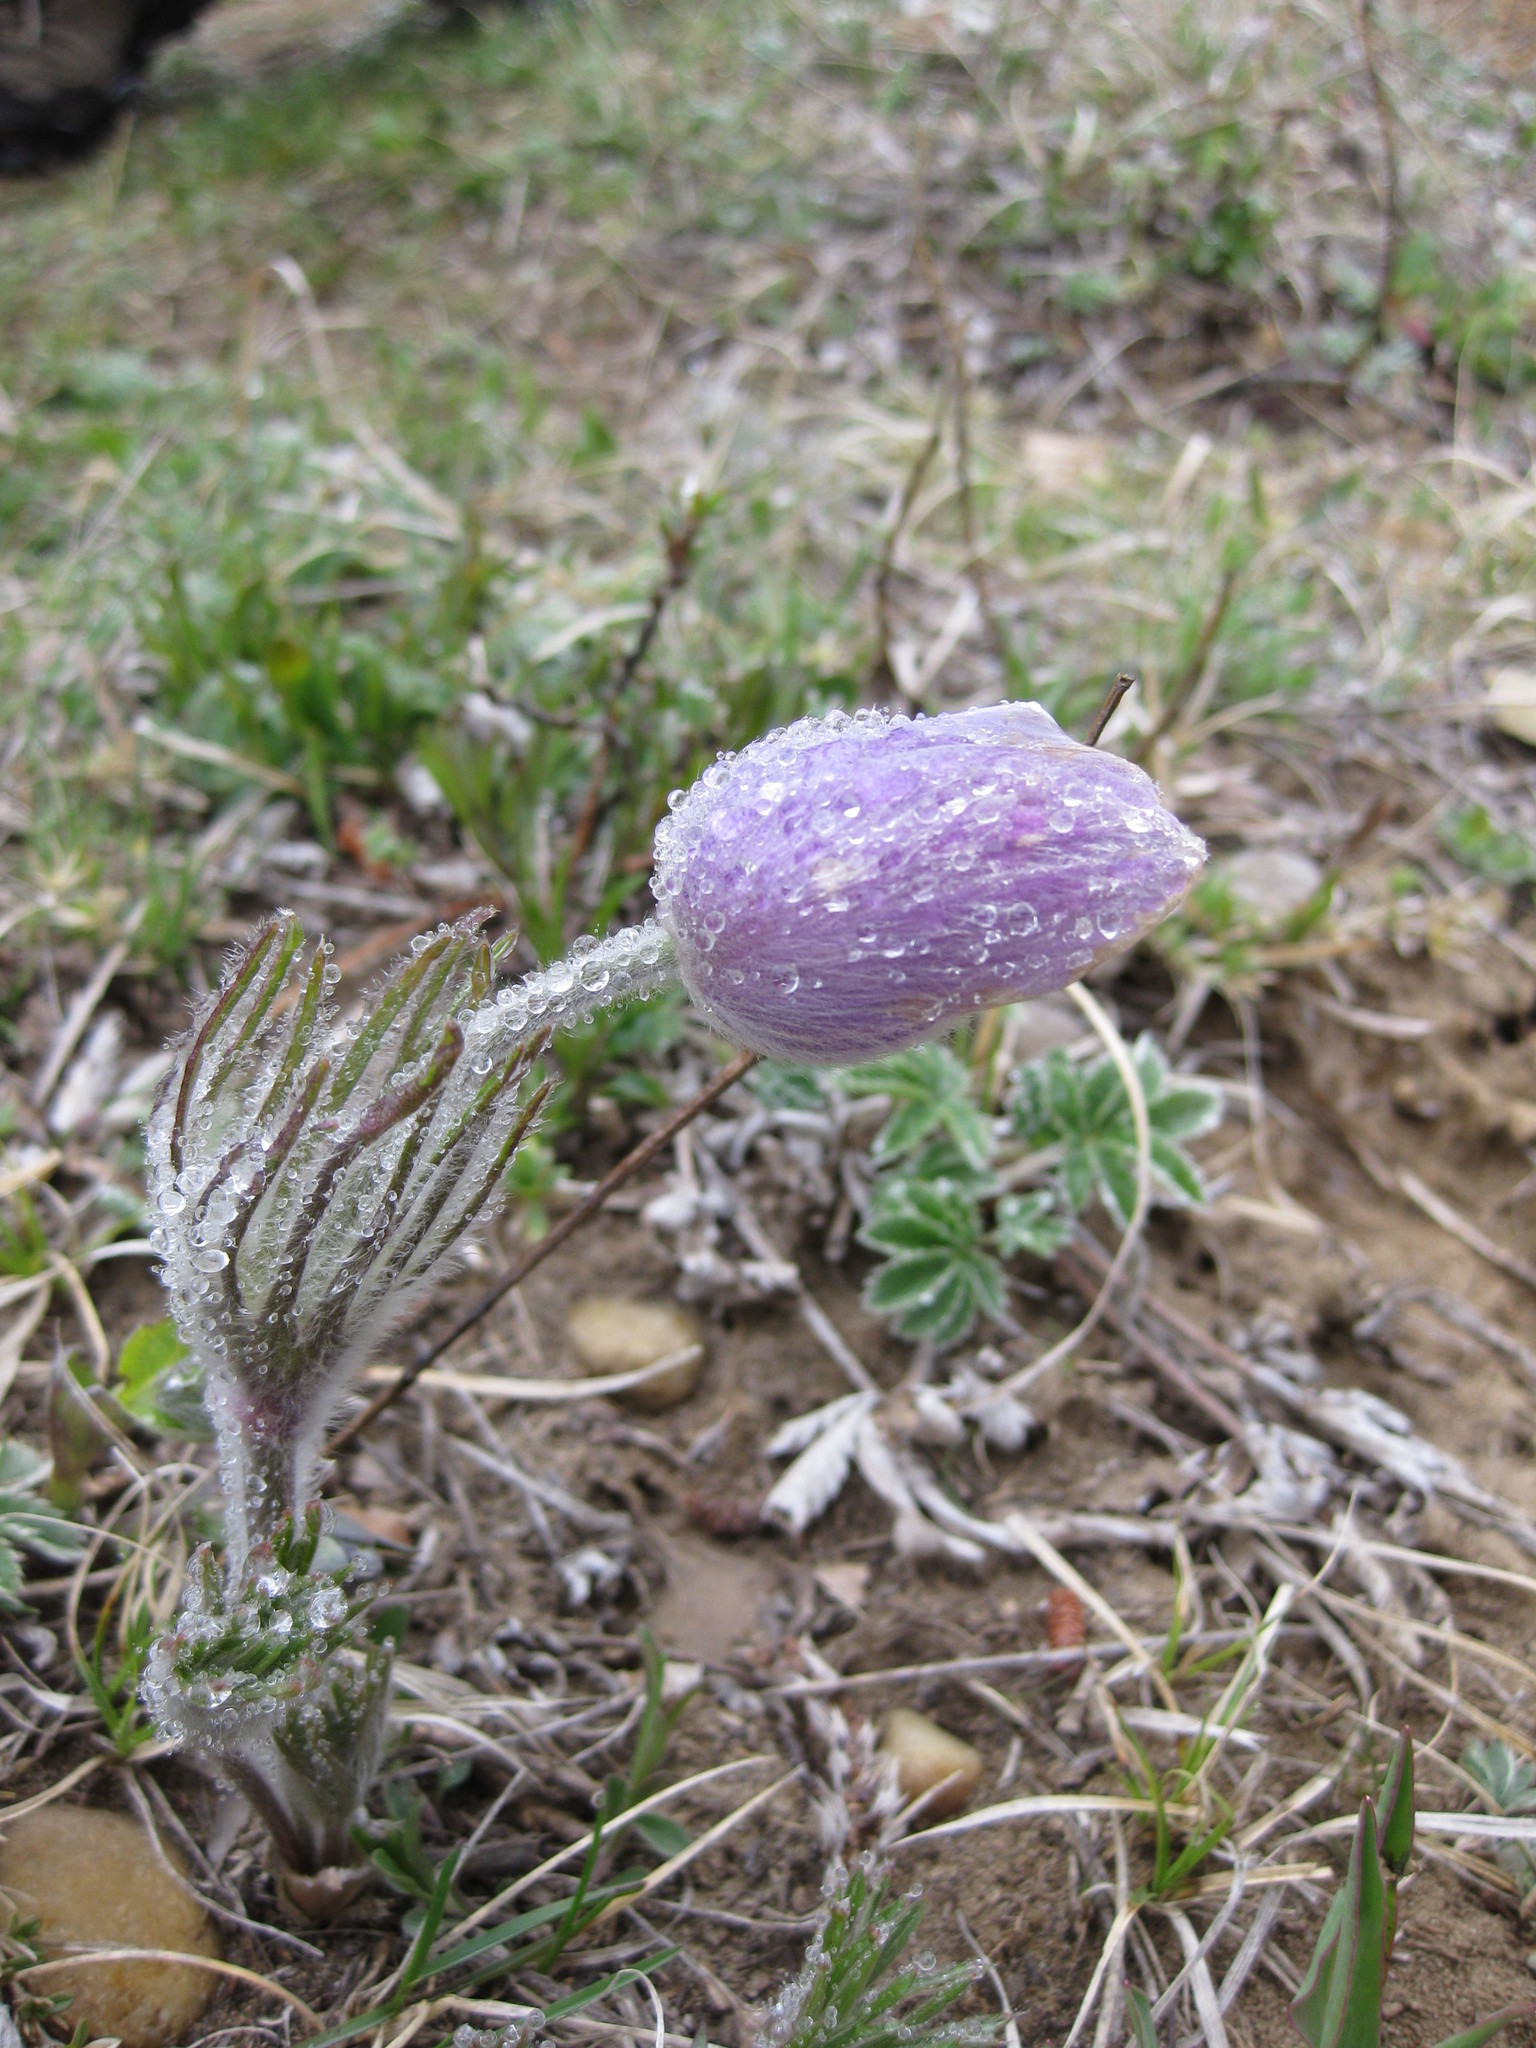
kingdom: Plantae
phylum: Tracheophyta
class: Magnoliopsida
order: Ranunculales
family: Ranunculaceae
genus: Pulsatilla
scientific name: Pulsatilla nuttalliana
